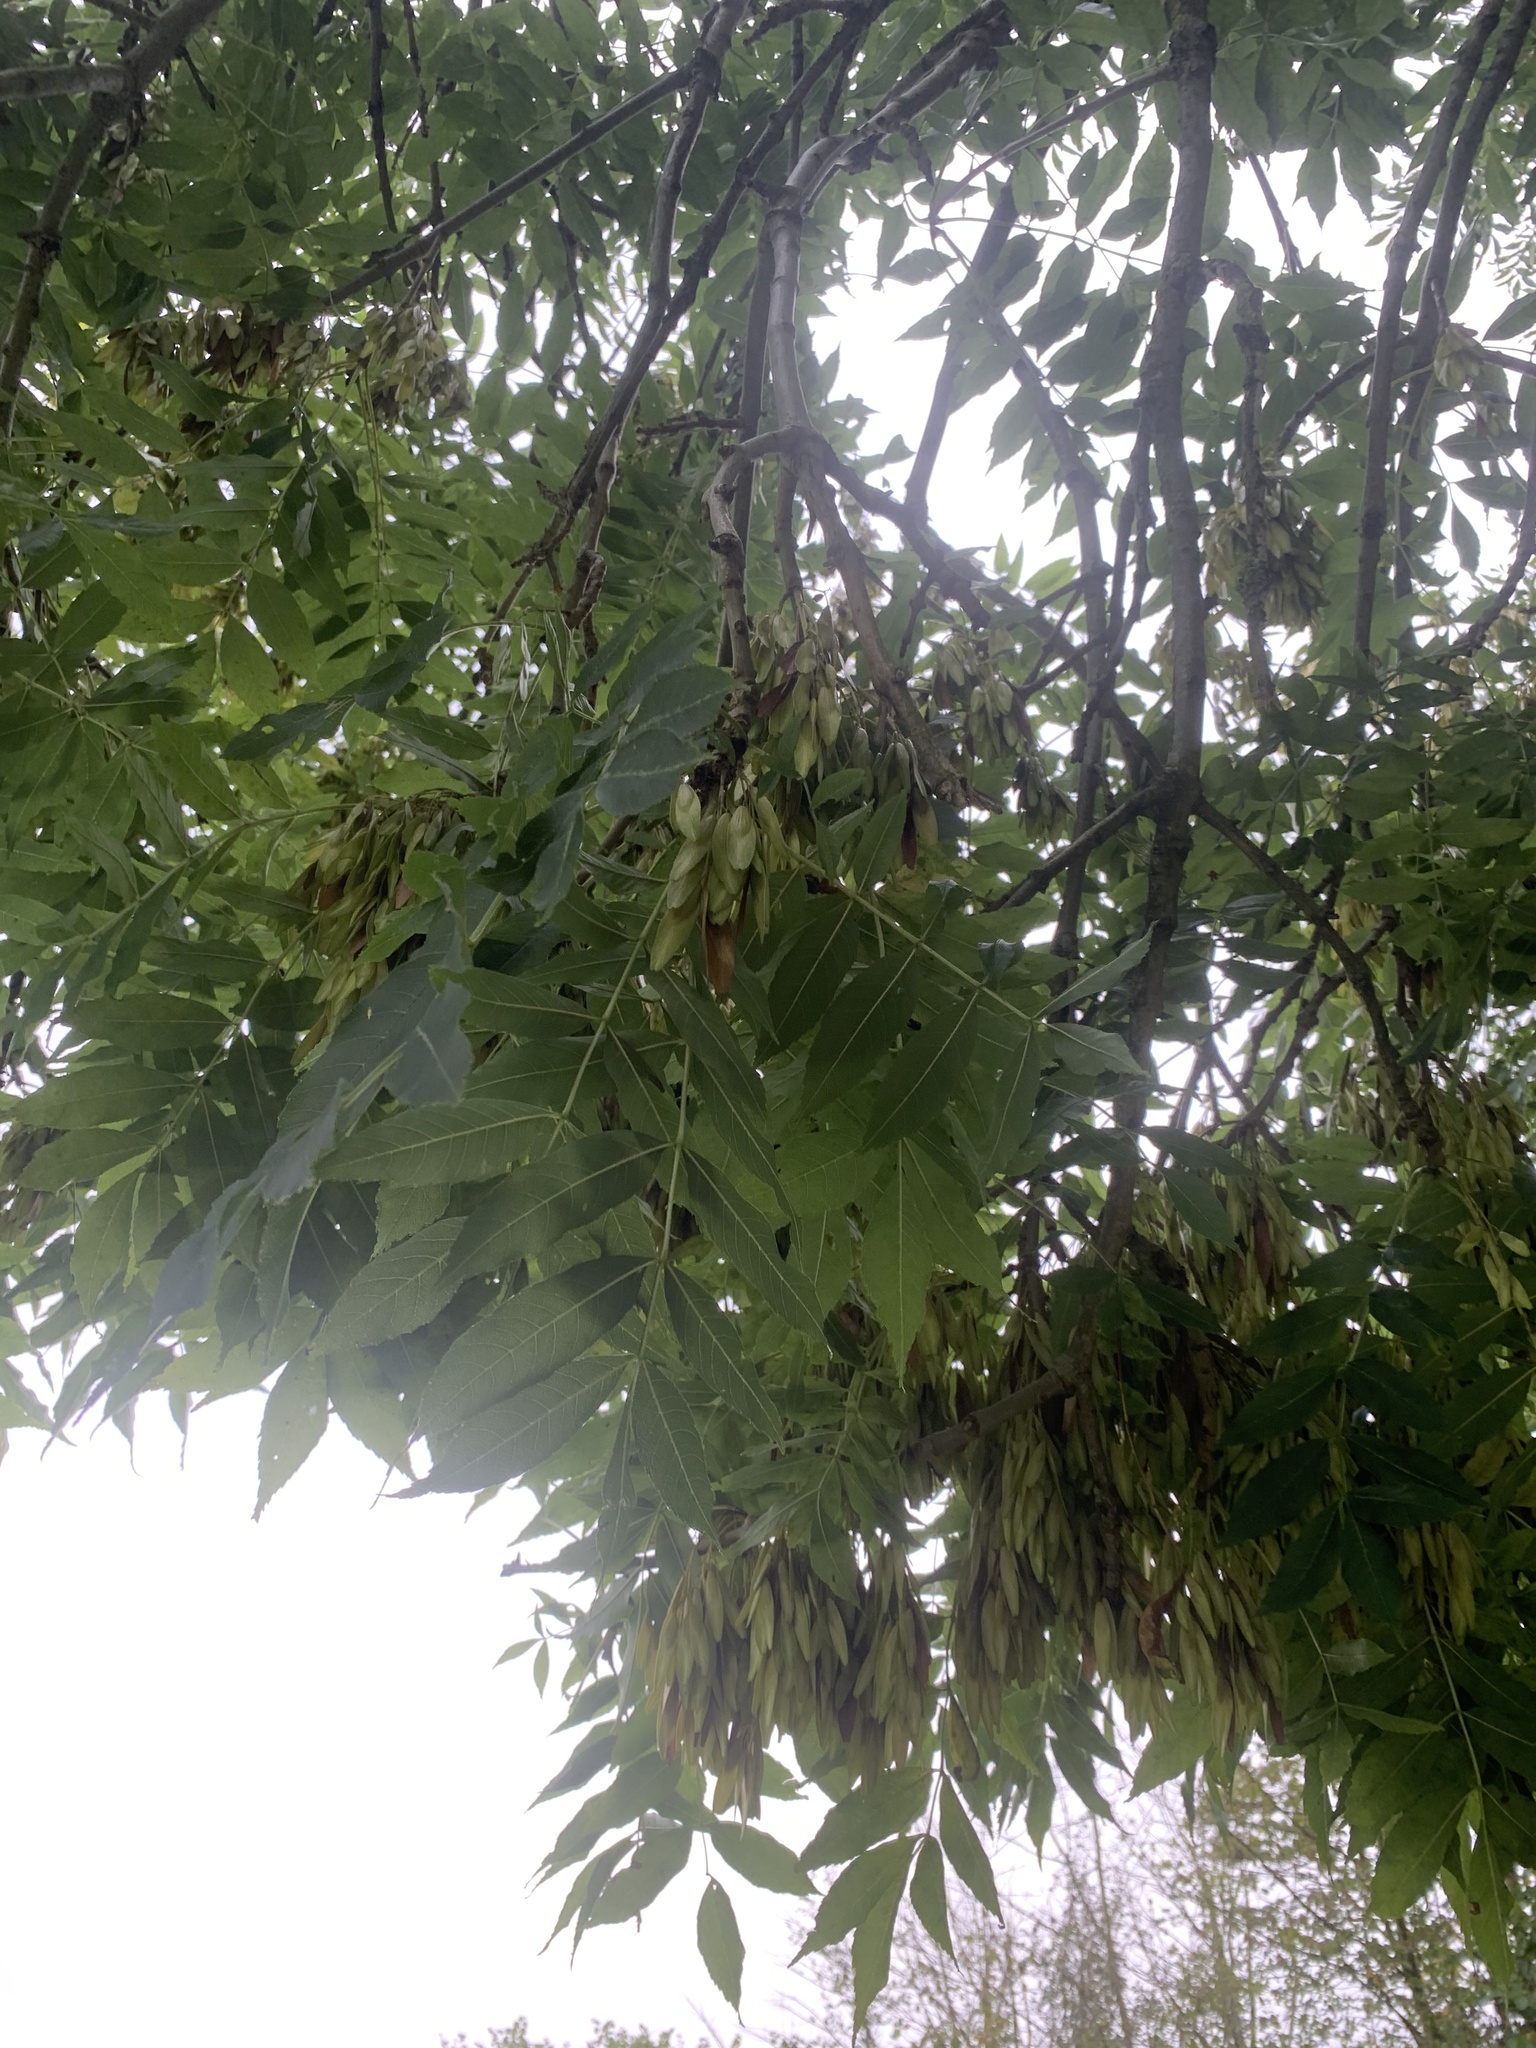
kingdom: Plantae
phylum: Tracheophyta
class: Magnoliopsida
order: Lamiales
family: Oleaceae
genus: Fraxinus
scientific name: Fraxinus excelsior
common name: European ash
